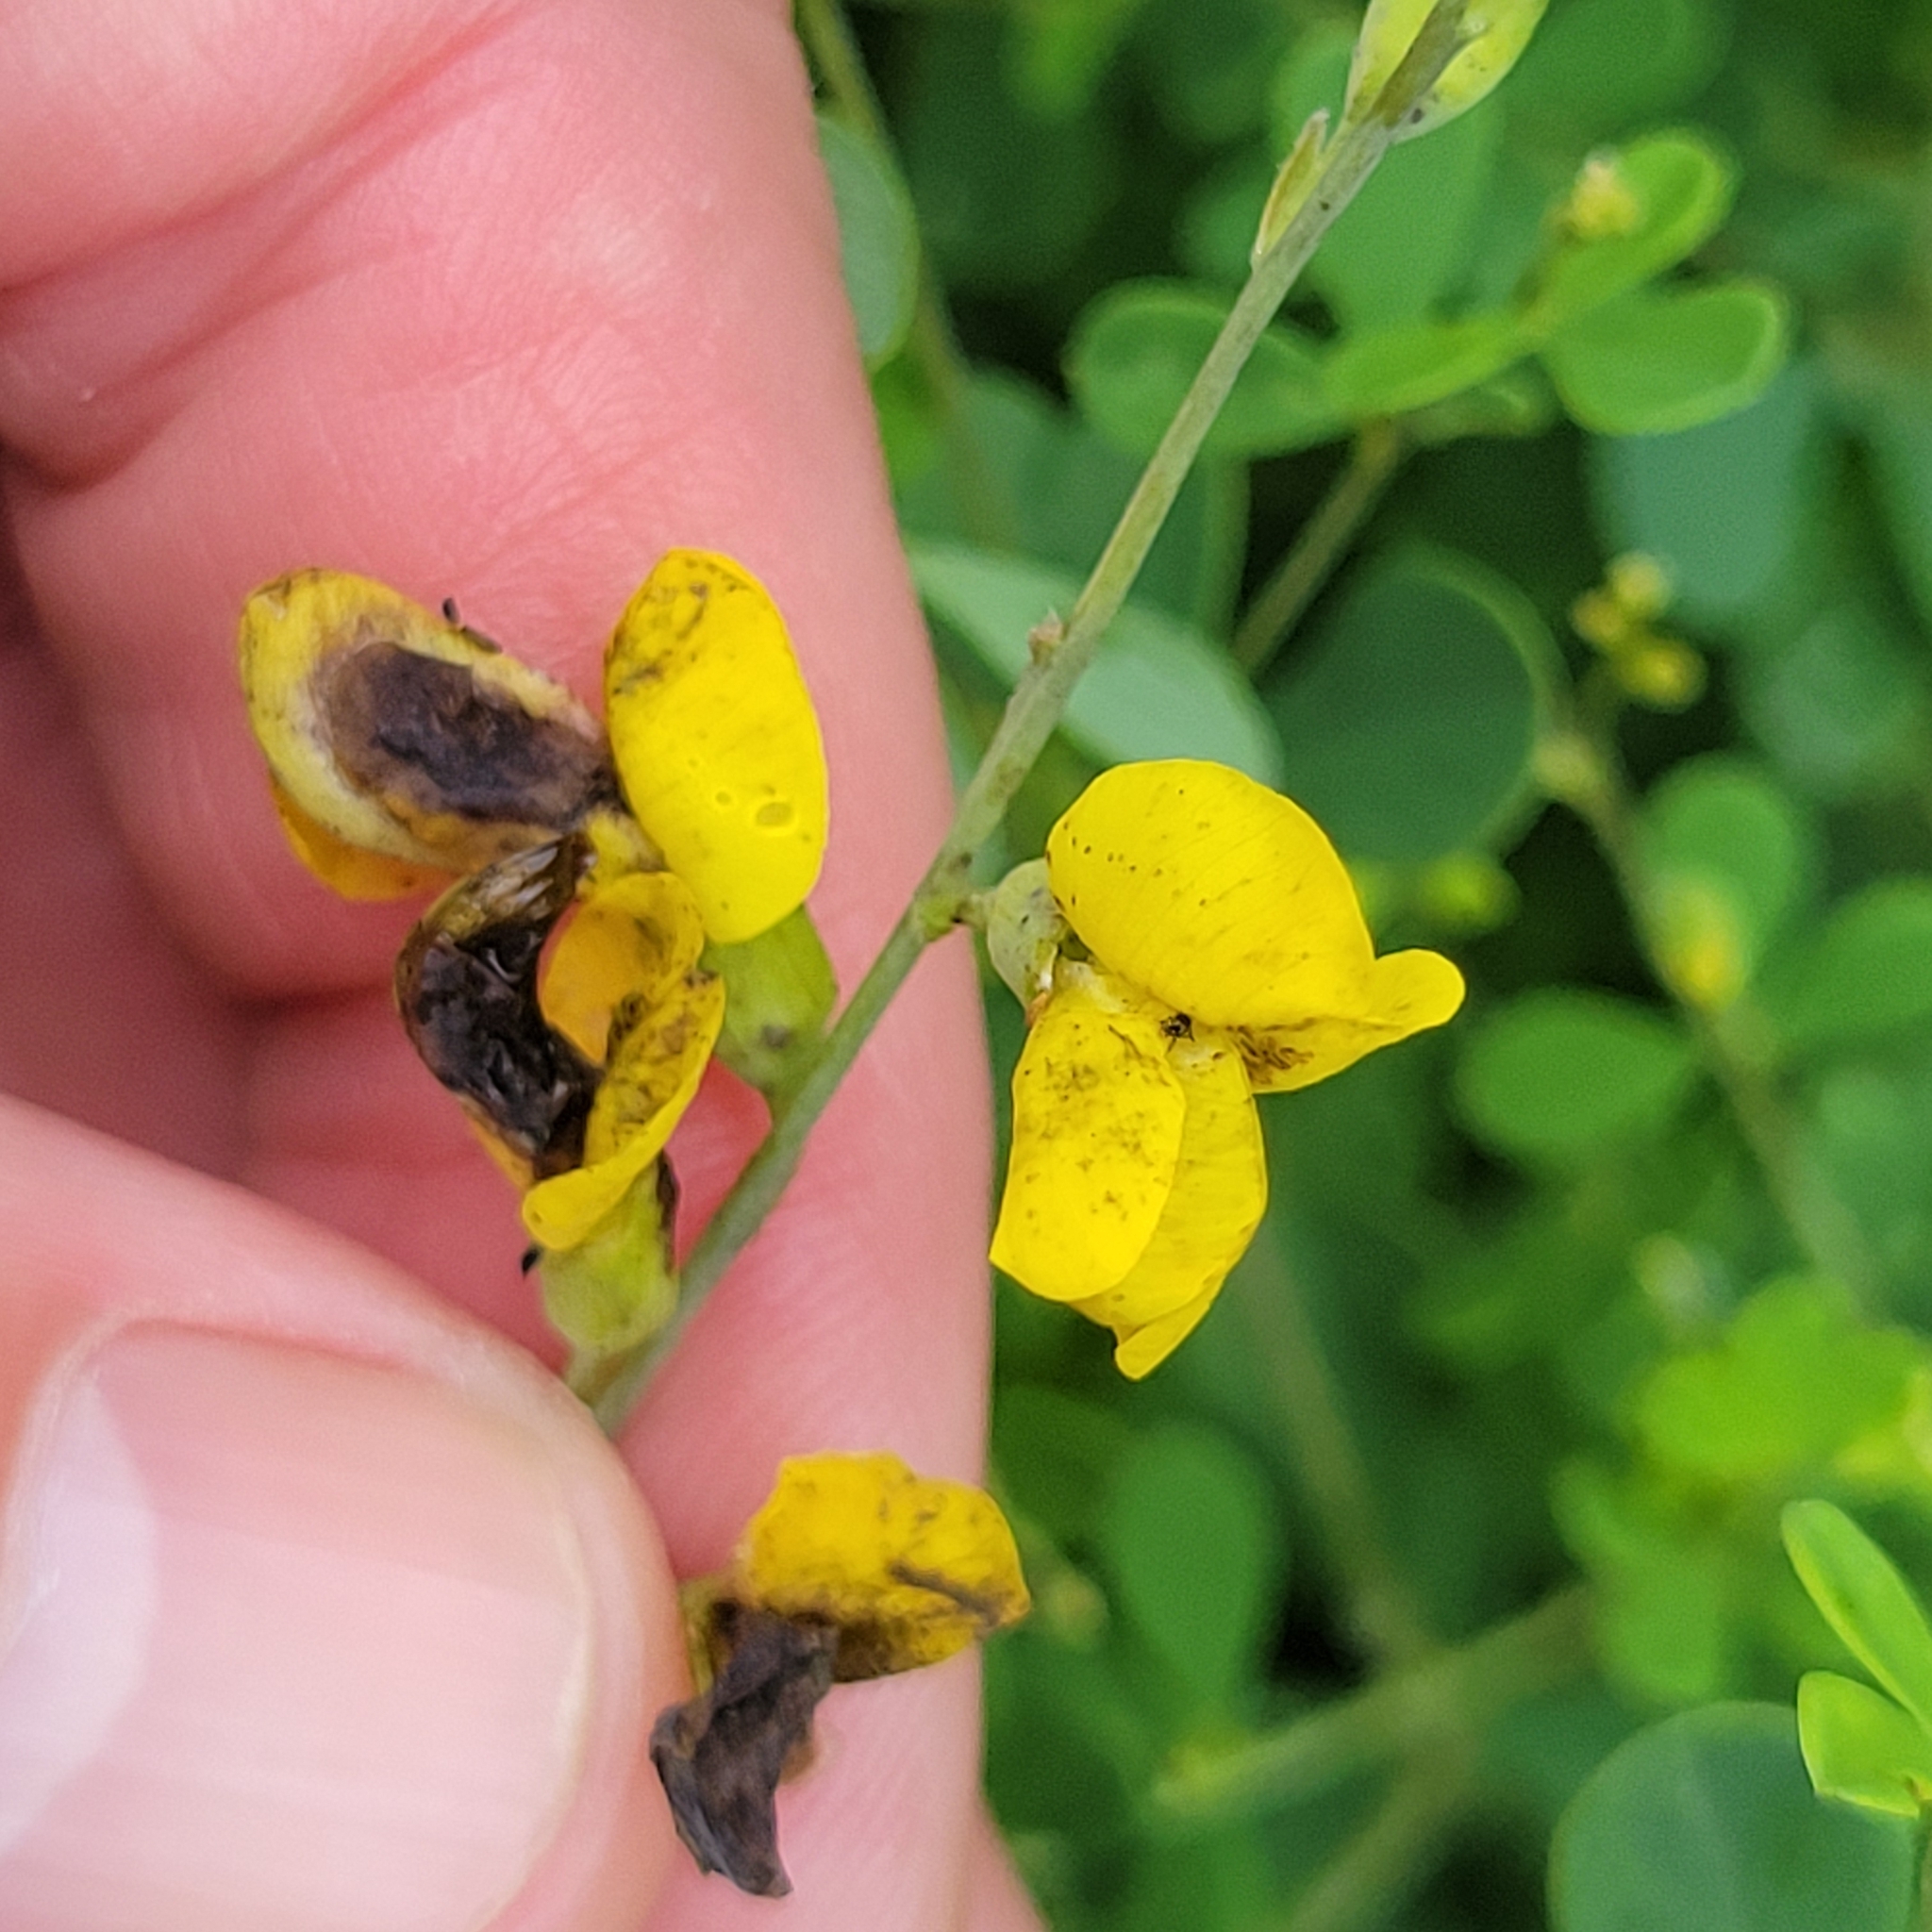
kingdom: Plantae
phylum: Tracheophyta
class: Magnoliopsida
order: Fabales
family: Fabaceae
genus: Baptisia
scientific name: Baptisia tinctoria
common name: Wild indigo
